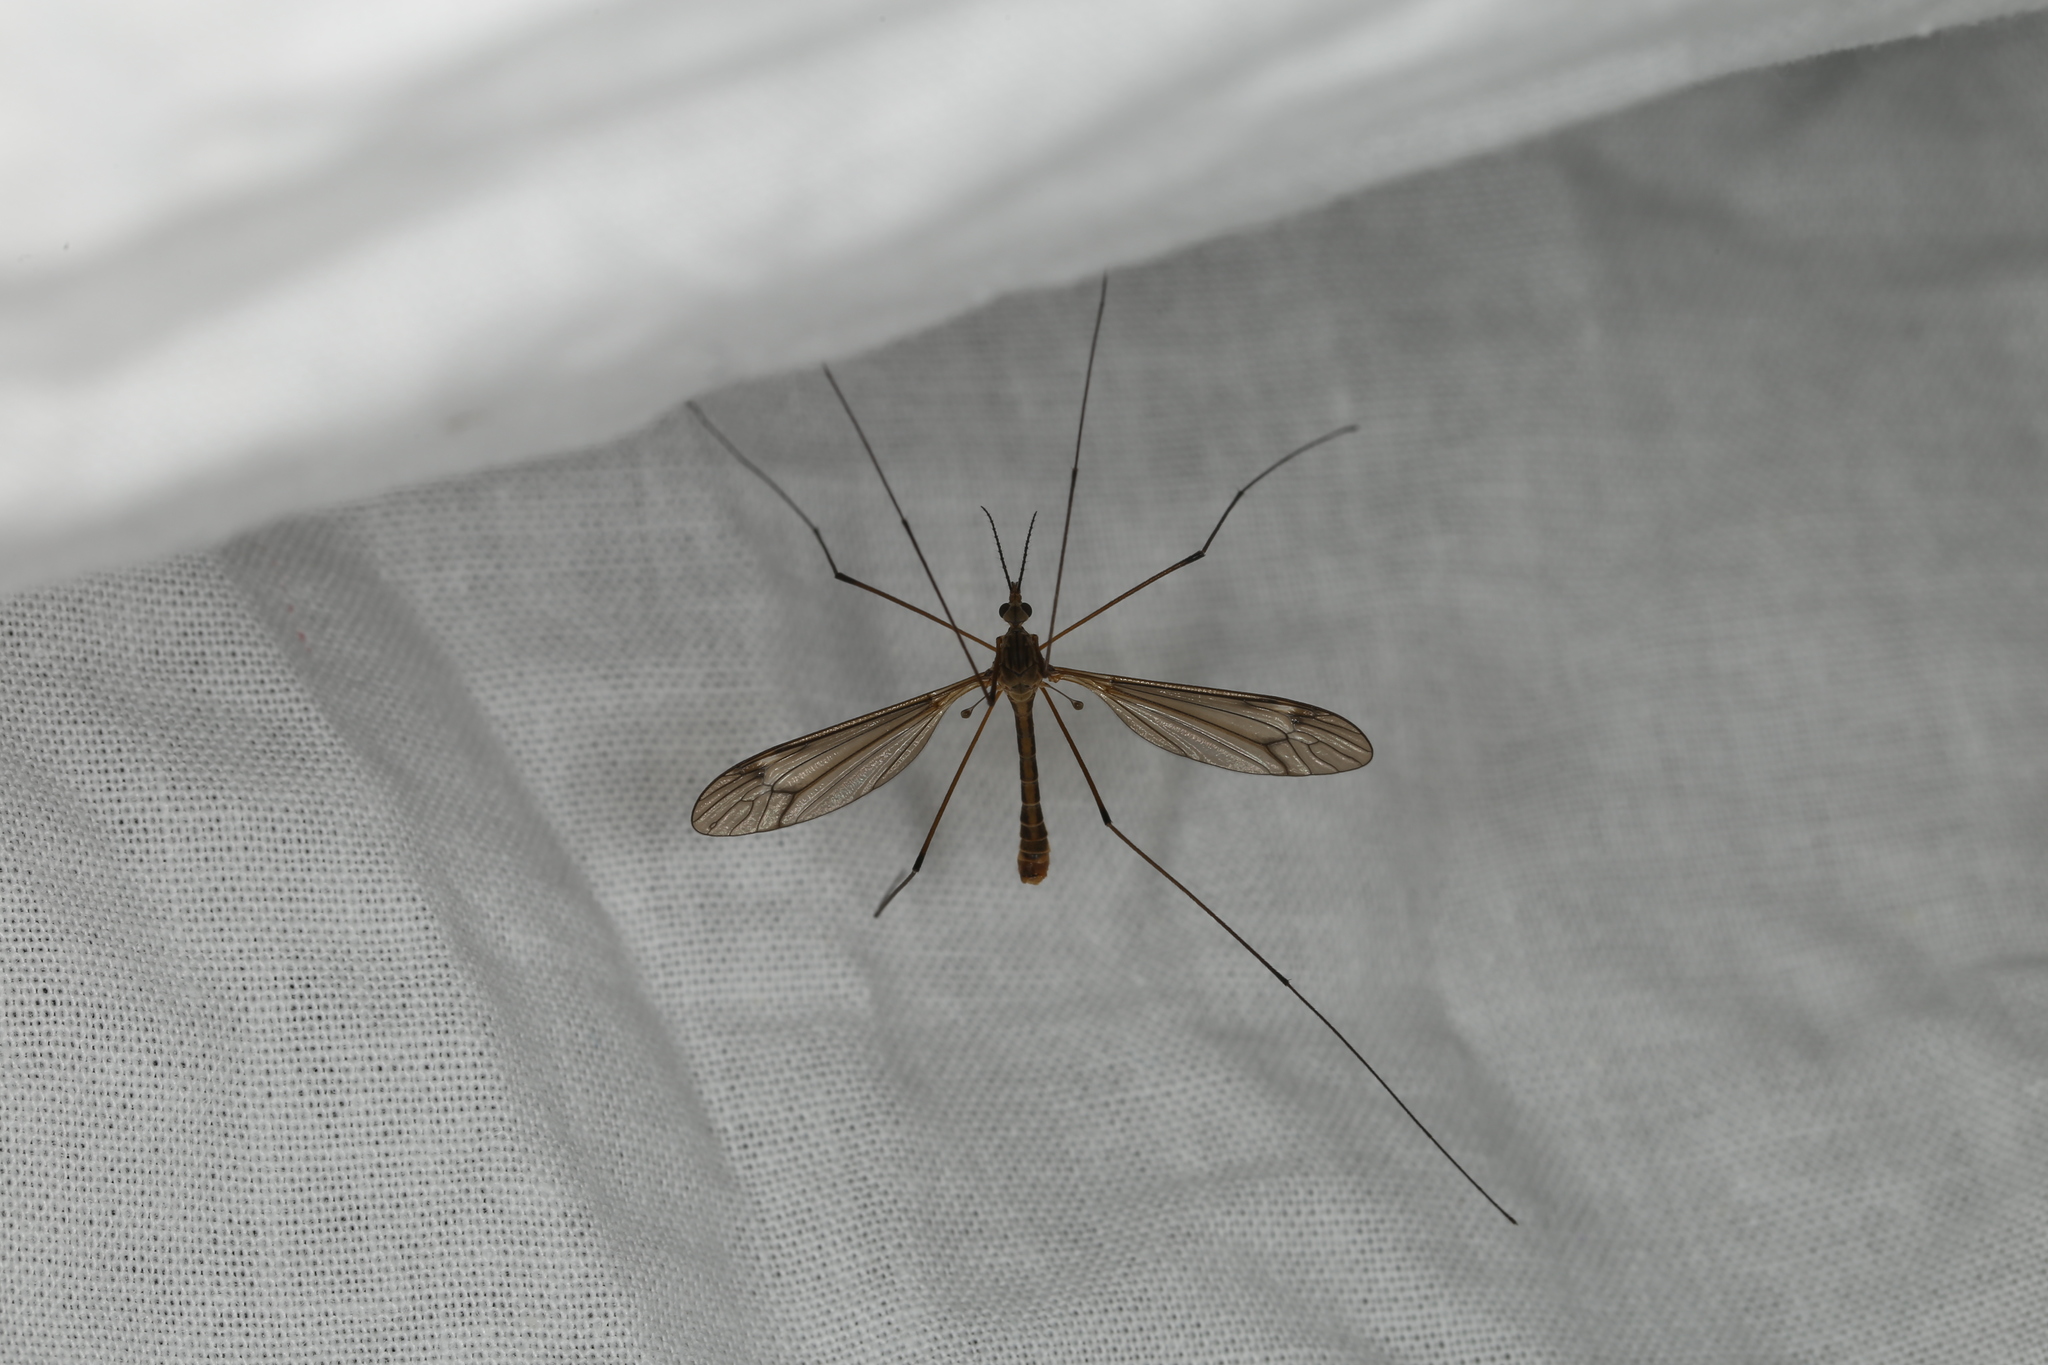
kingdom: Animalia
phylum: Arthropoda
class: Insecta
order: Diptera
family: Tipulidae
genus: Tipula
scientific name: Tipula lateralis
